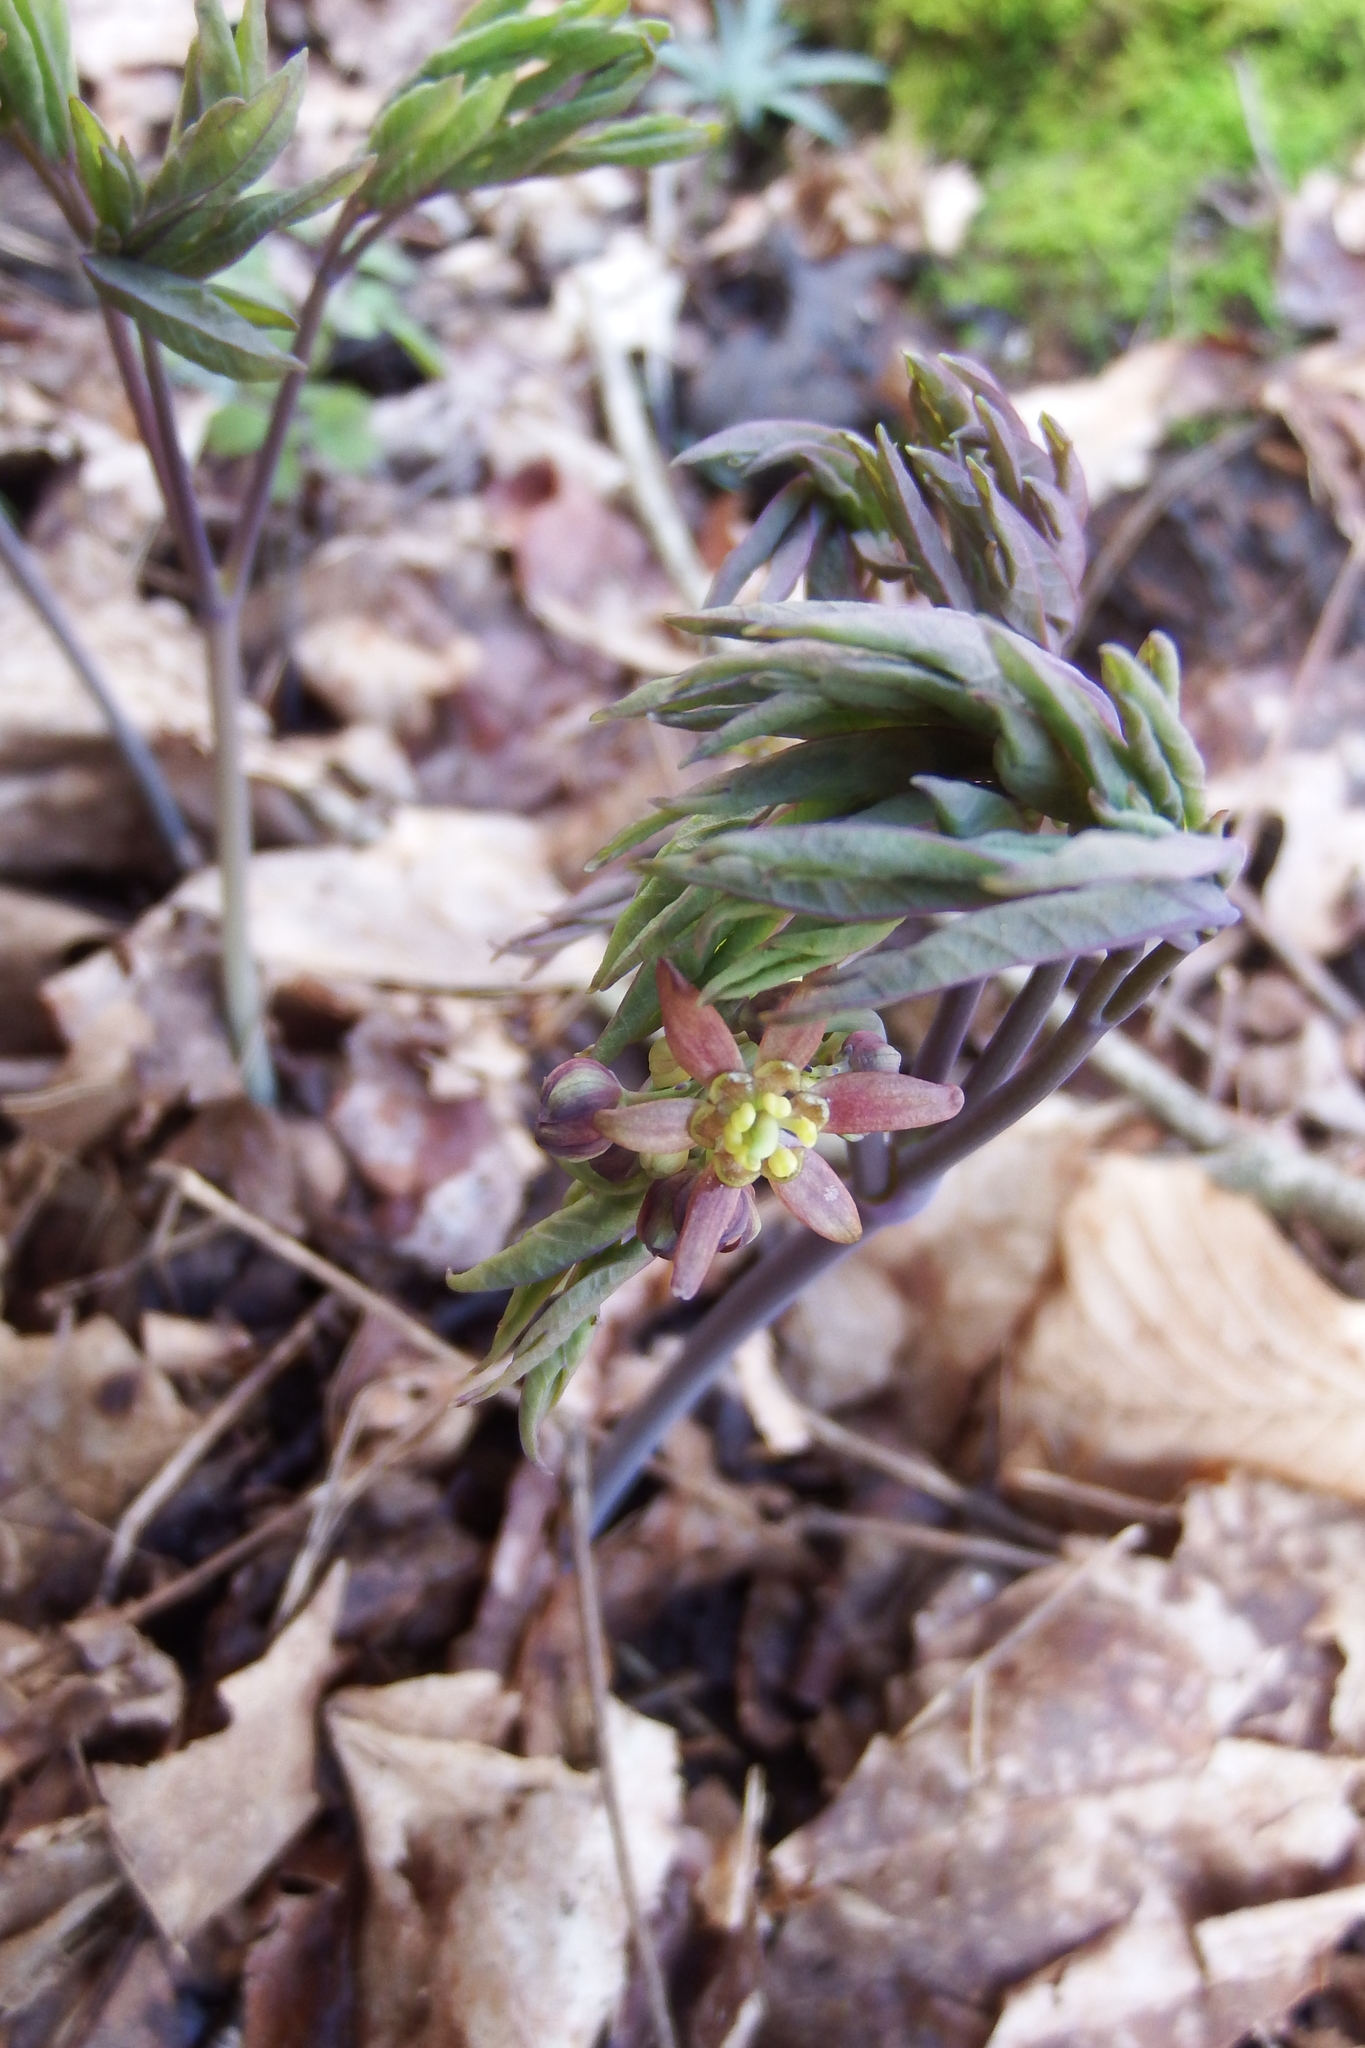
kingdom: Plantae
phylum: Tracheophyta
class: Magnoliopsida
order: Ranunculales
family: Berberidaceae
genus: Caulophyllum
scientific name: Caulophyllum giganteum
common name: Blue cohosh
